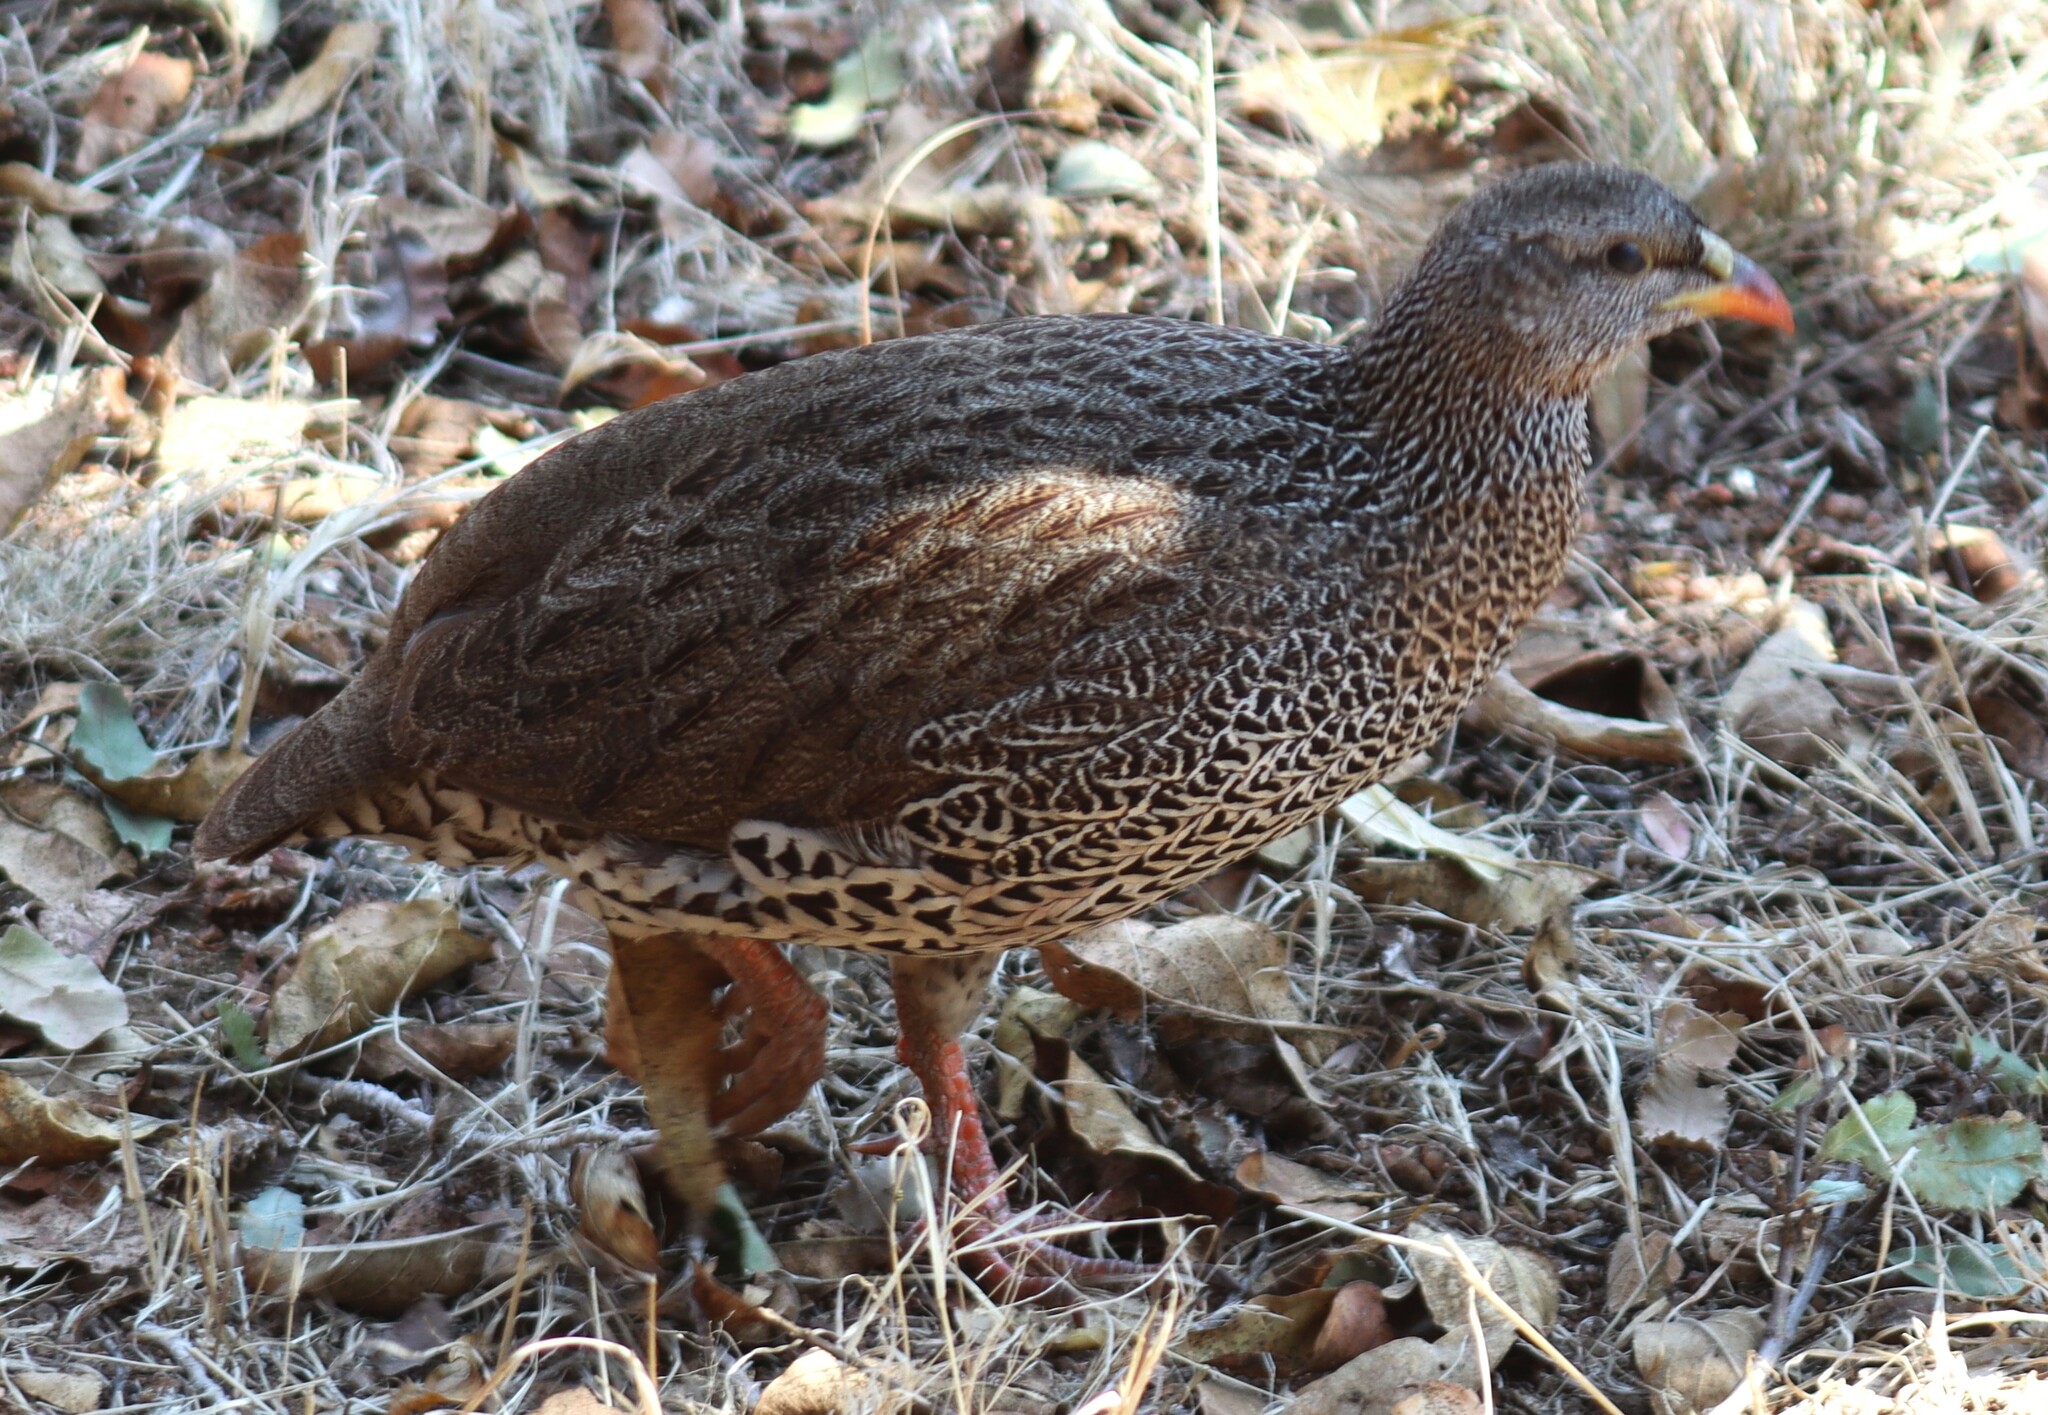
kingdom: Animalia
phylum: Chordata
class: Aves
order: Galliformes
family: Phasianidae
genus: Pternistis
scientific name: Pternistis natalensis
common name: Natal spurfowl
